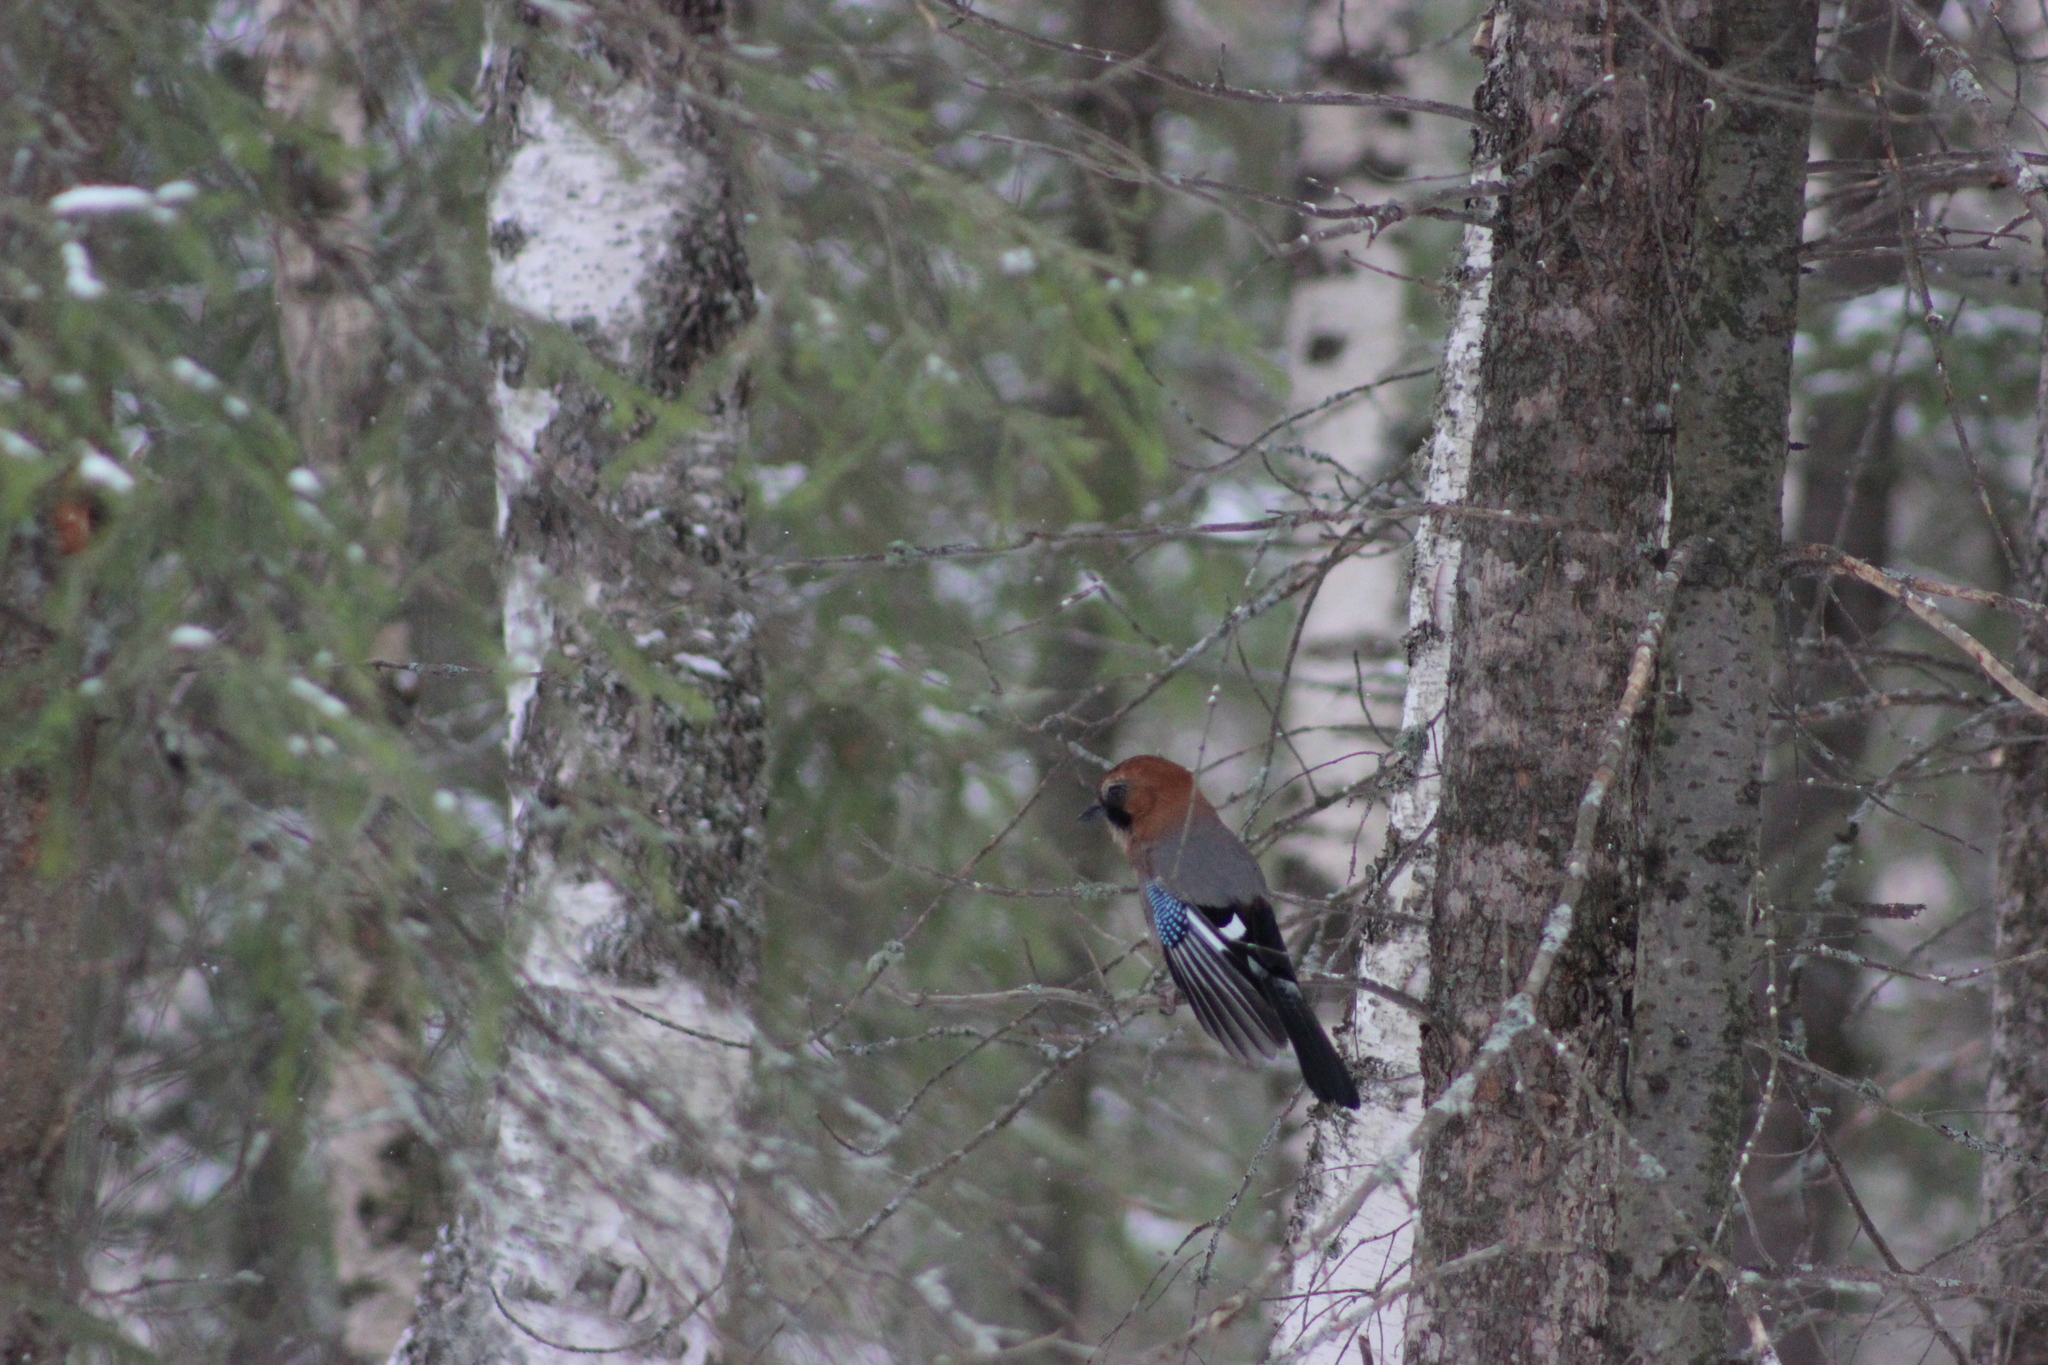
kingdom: Animalia
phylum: Chordata
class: Aves
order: Passeriformes
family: Corvidae
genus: Garrulus
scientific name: Garrulus glandarius
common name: Eurasian jay
